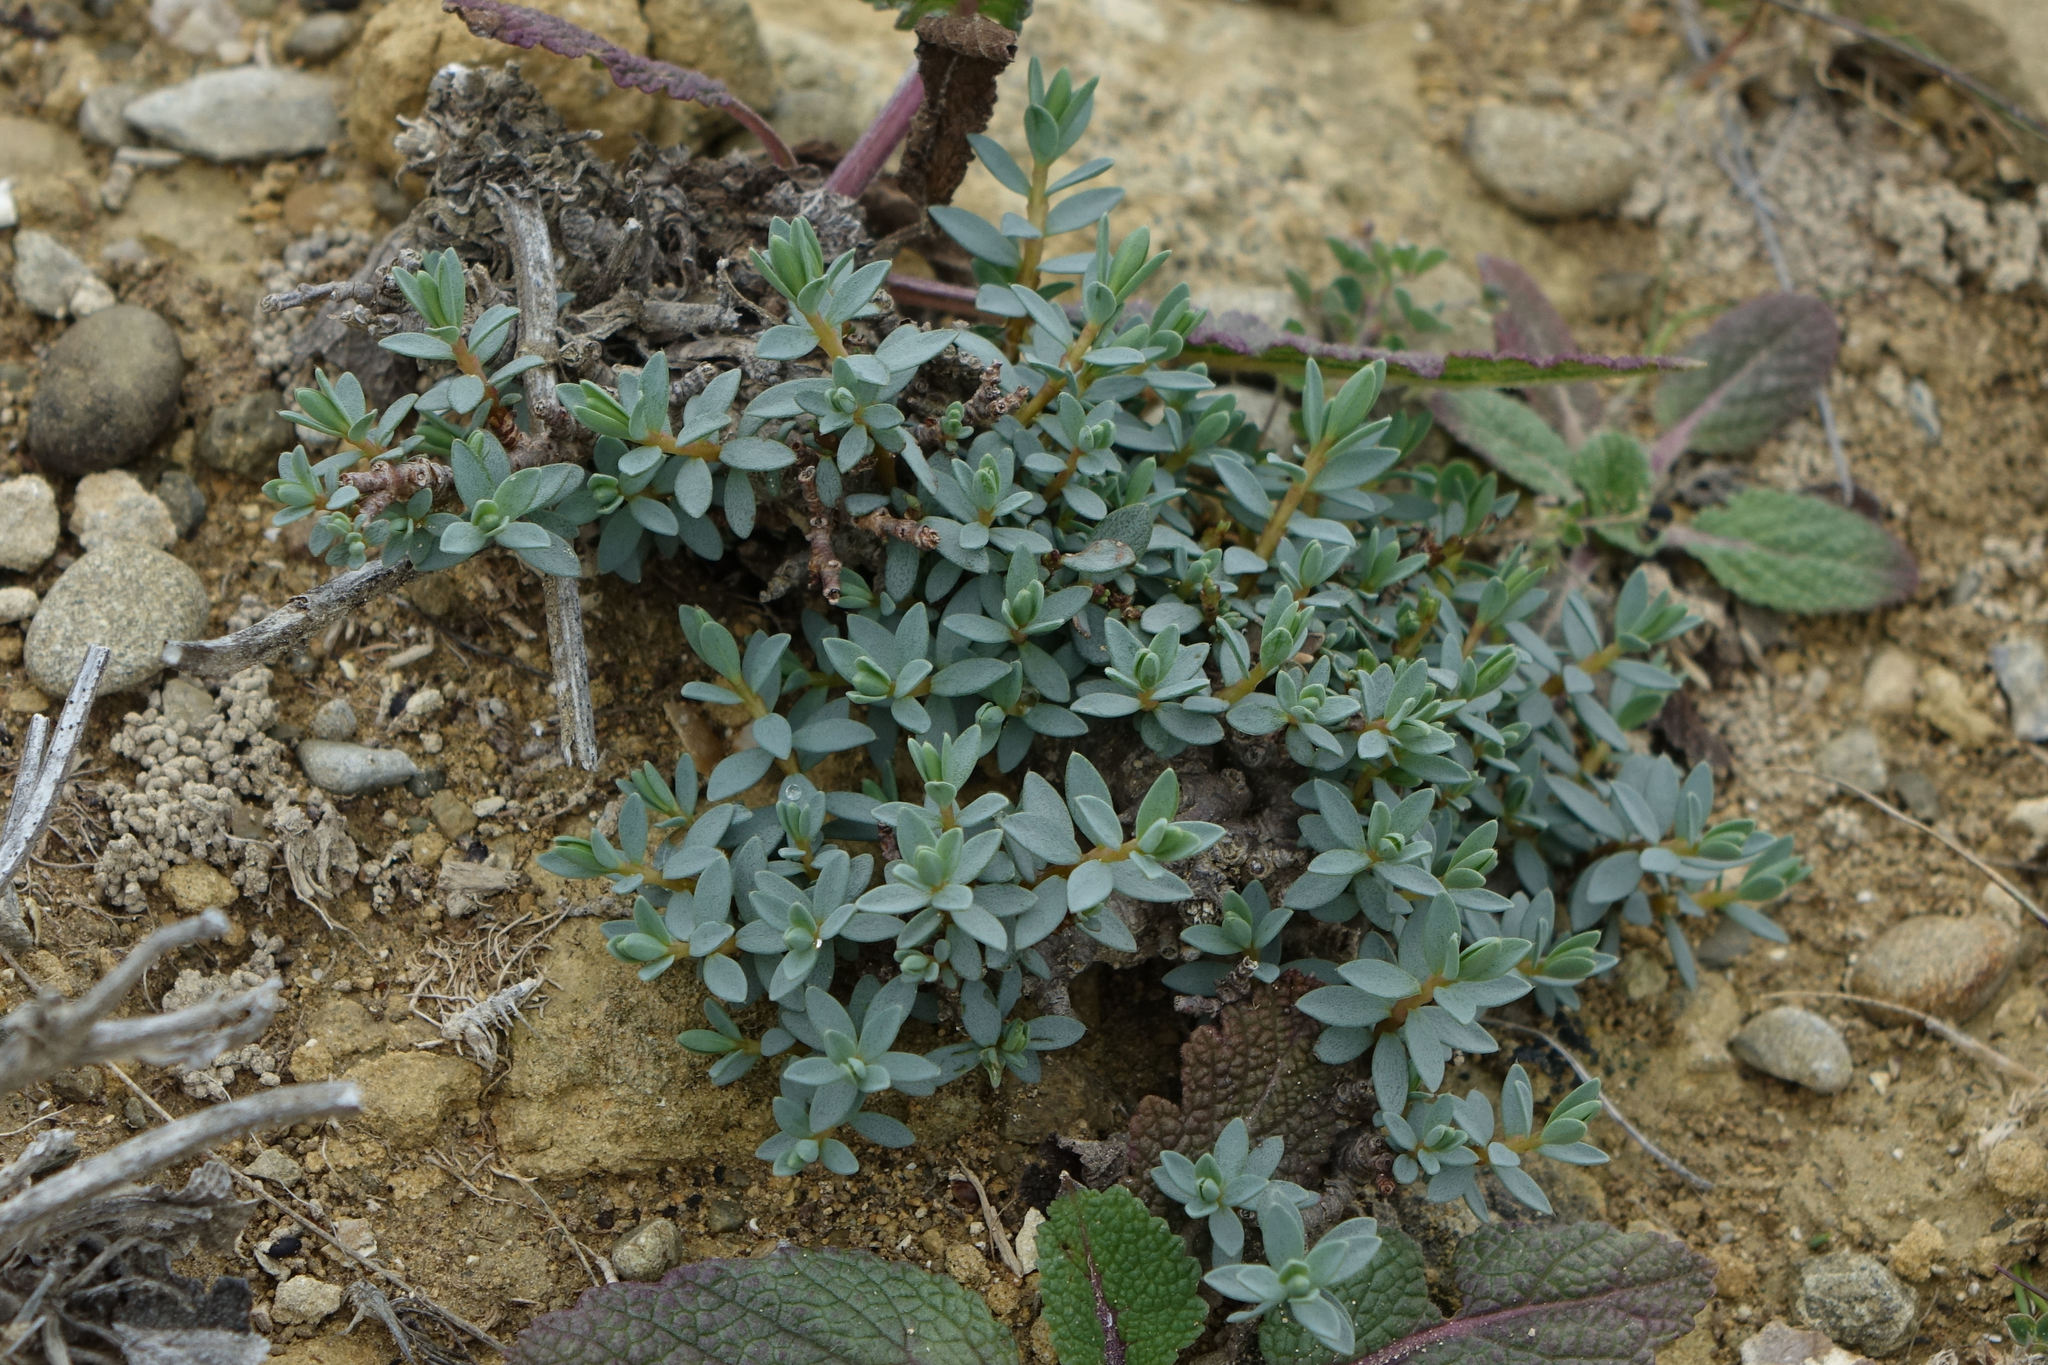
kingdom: Plantae
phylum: Tracheophyta
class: Magnoliopsida
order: Malvales
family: Thymelaeaceae
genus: Pimelea
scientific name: Pimelea prostrata
